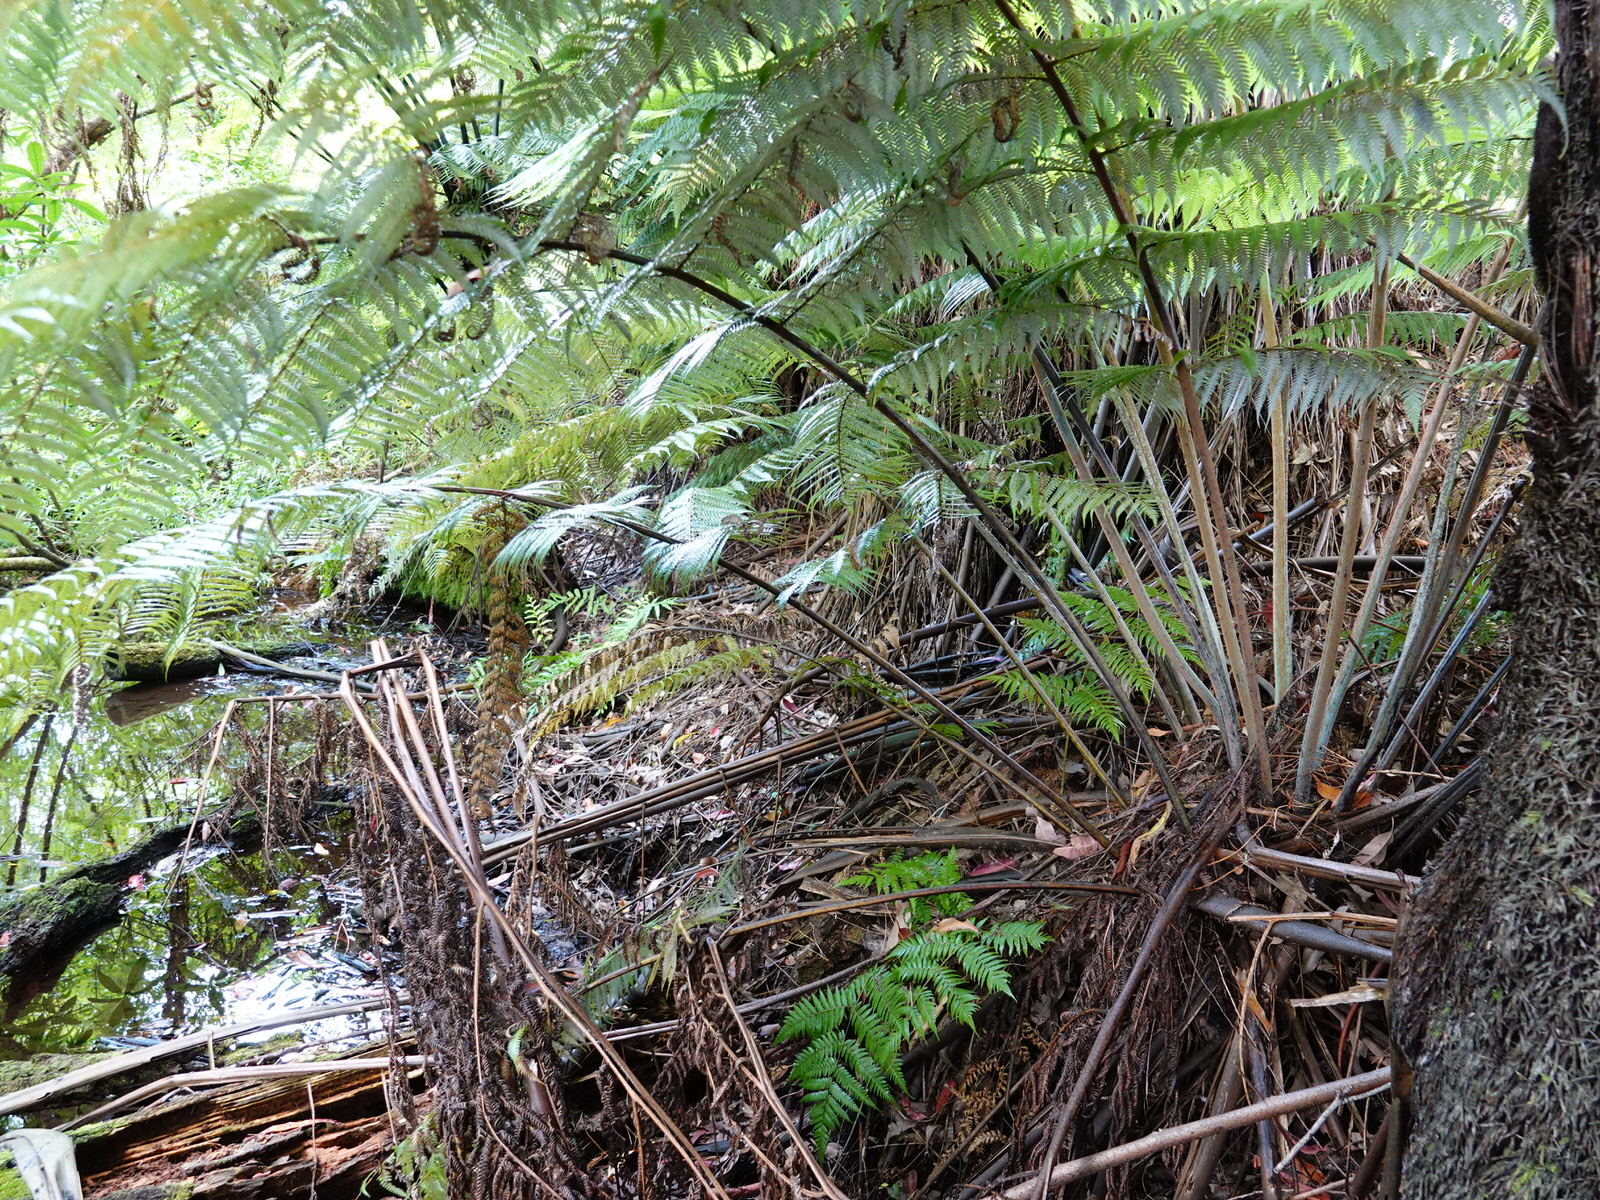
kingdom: Plantae
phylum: Tracheophyta
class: Polypodiopsida
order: Cyatheales
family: Cyatheaceae
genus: Alsophila
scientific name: Alsophila dealbata
